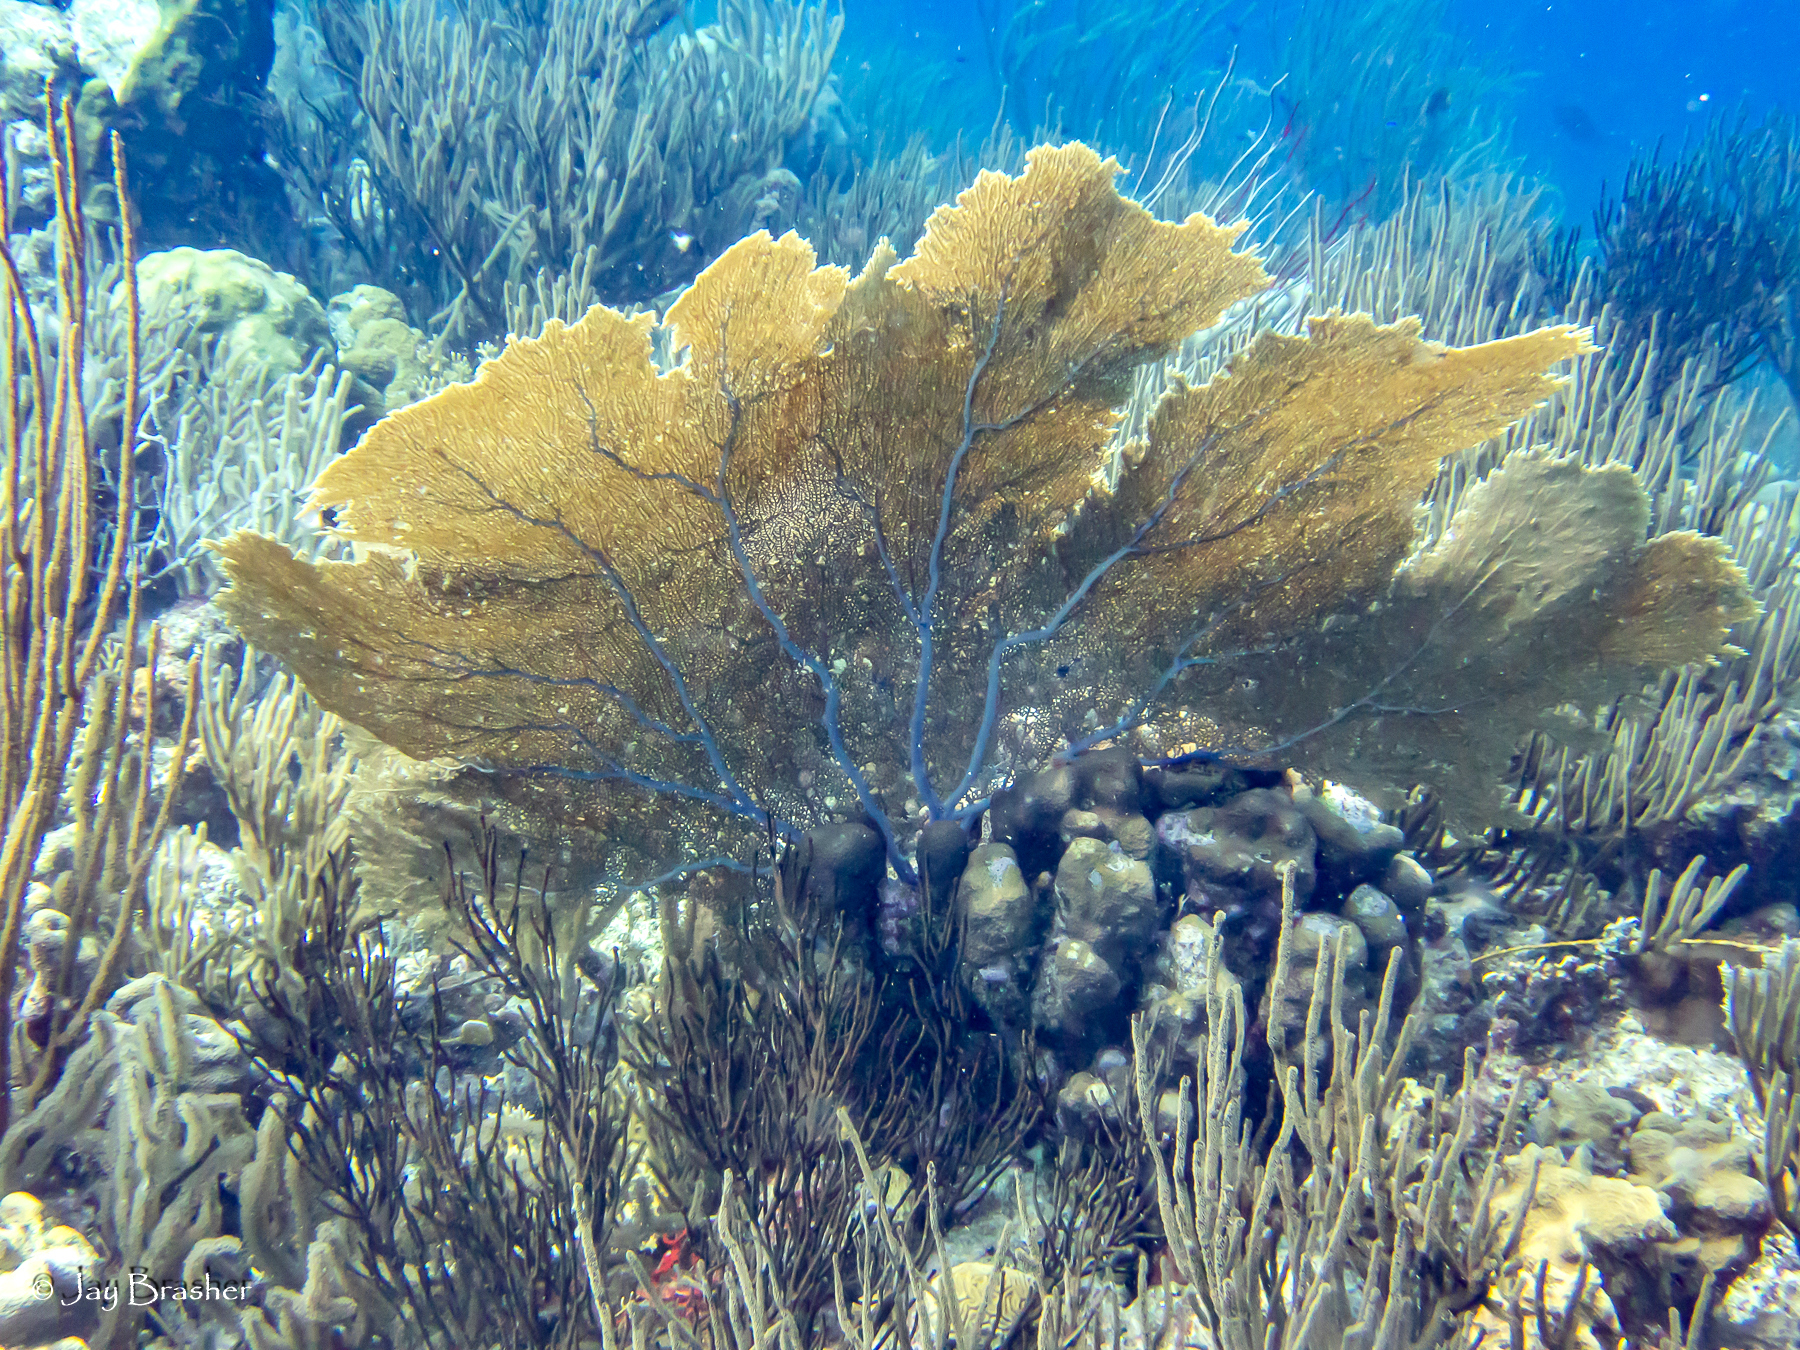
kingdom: Animalia
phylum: Cnidaria
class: Anthozoa
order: Malacalcyonacea
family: Gorgoniidae
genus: Gorgonia
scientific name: Gorgonia ventalina
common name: Common sea fan
